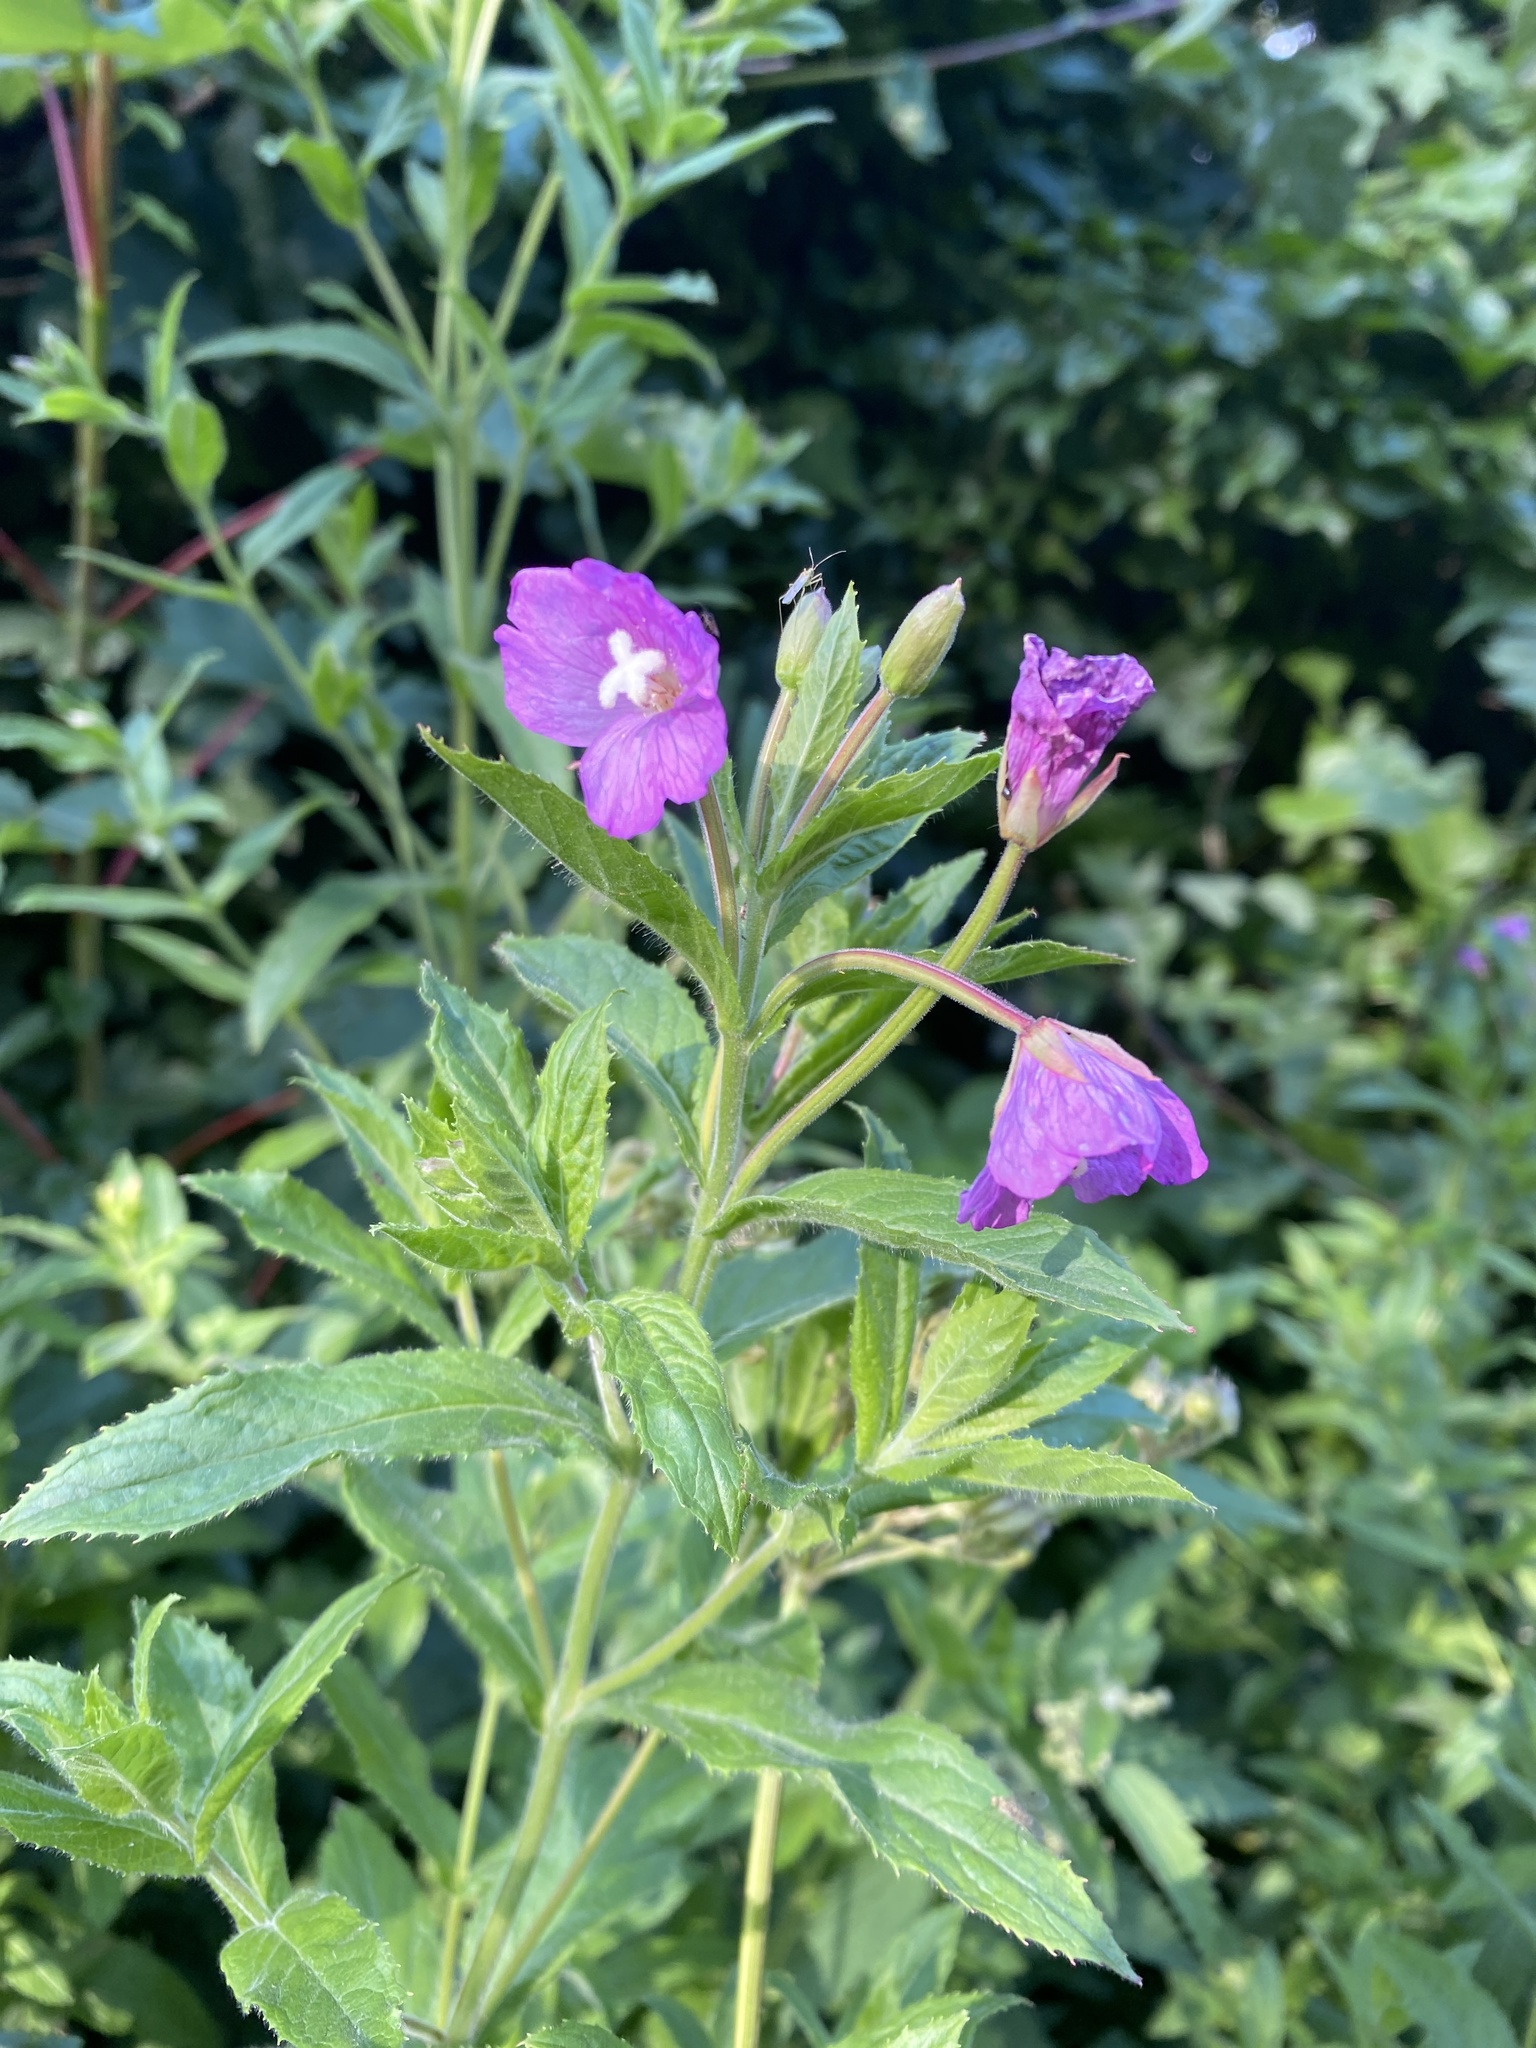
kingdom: Plantae
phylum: Tracheophyta
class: Magnoliopsida
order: Myrtales
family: Onagraceae
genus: Epilobium
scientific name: Epilobium hirsutum
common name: Great willowherb
